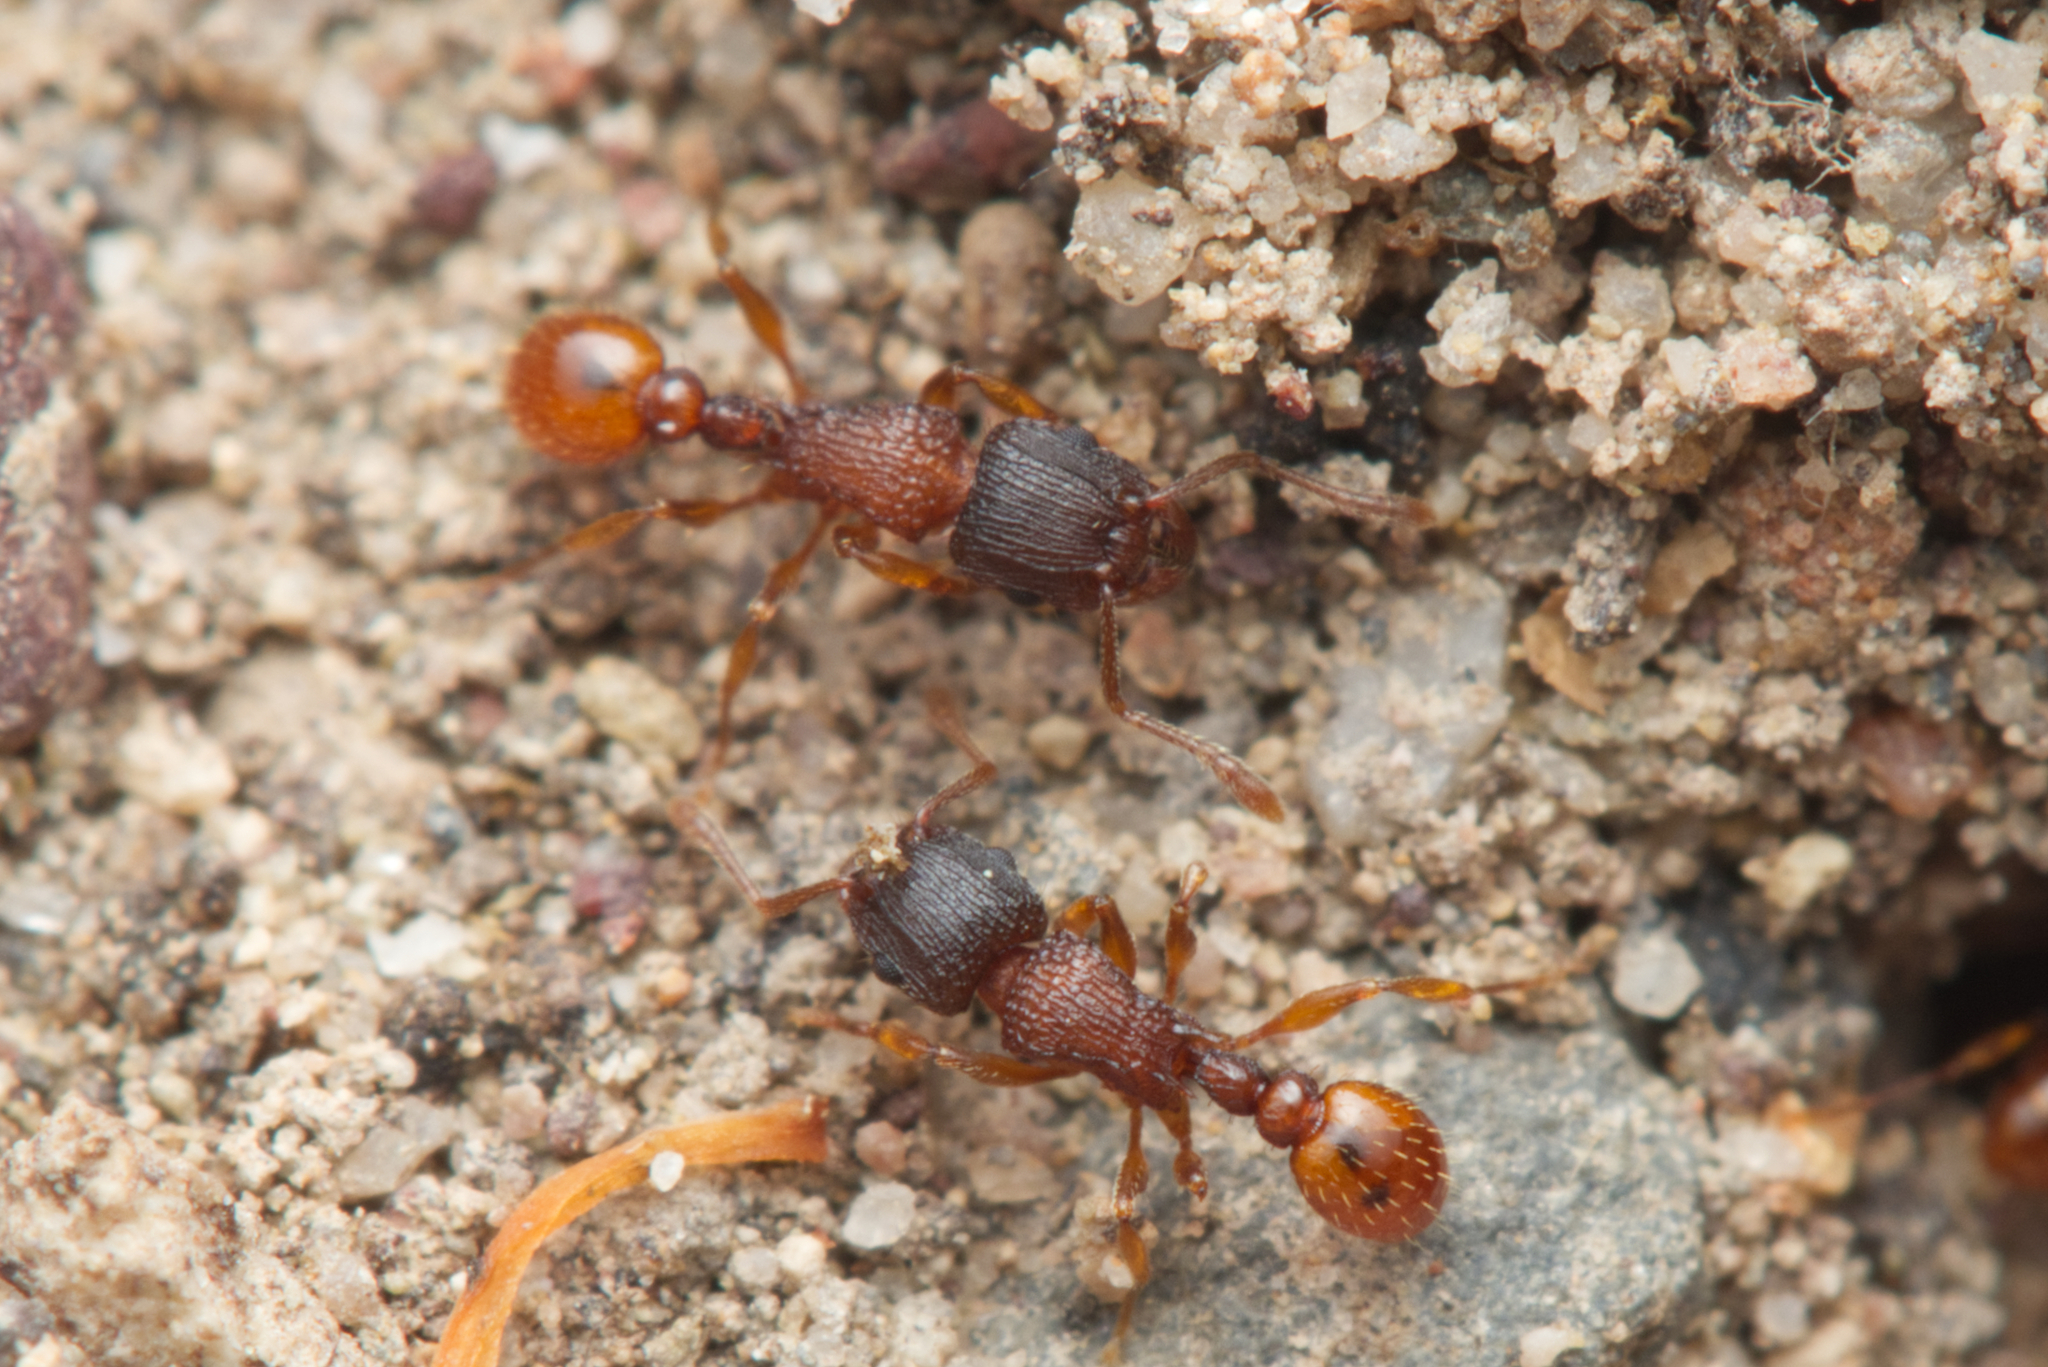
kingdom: Animalia
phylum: Arthropoda
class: Insecta
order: Hymenoptera
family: Formicidae
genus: Tetramorium
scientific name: Tetramorium fuscipes
